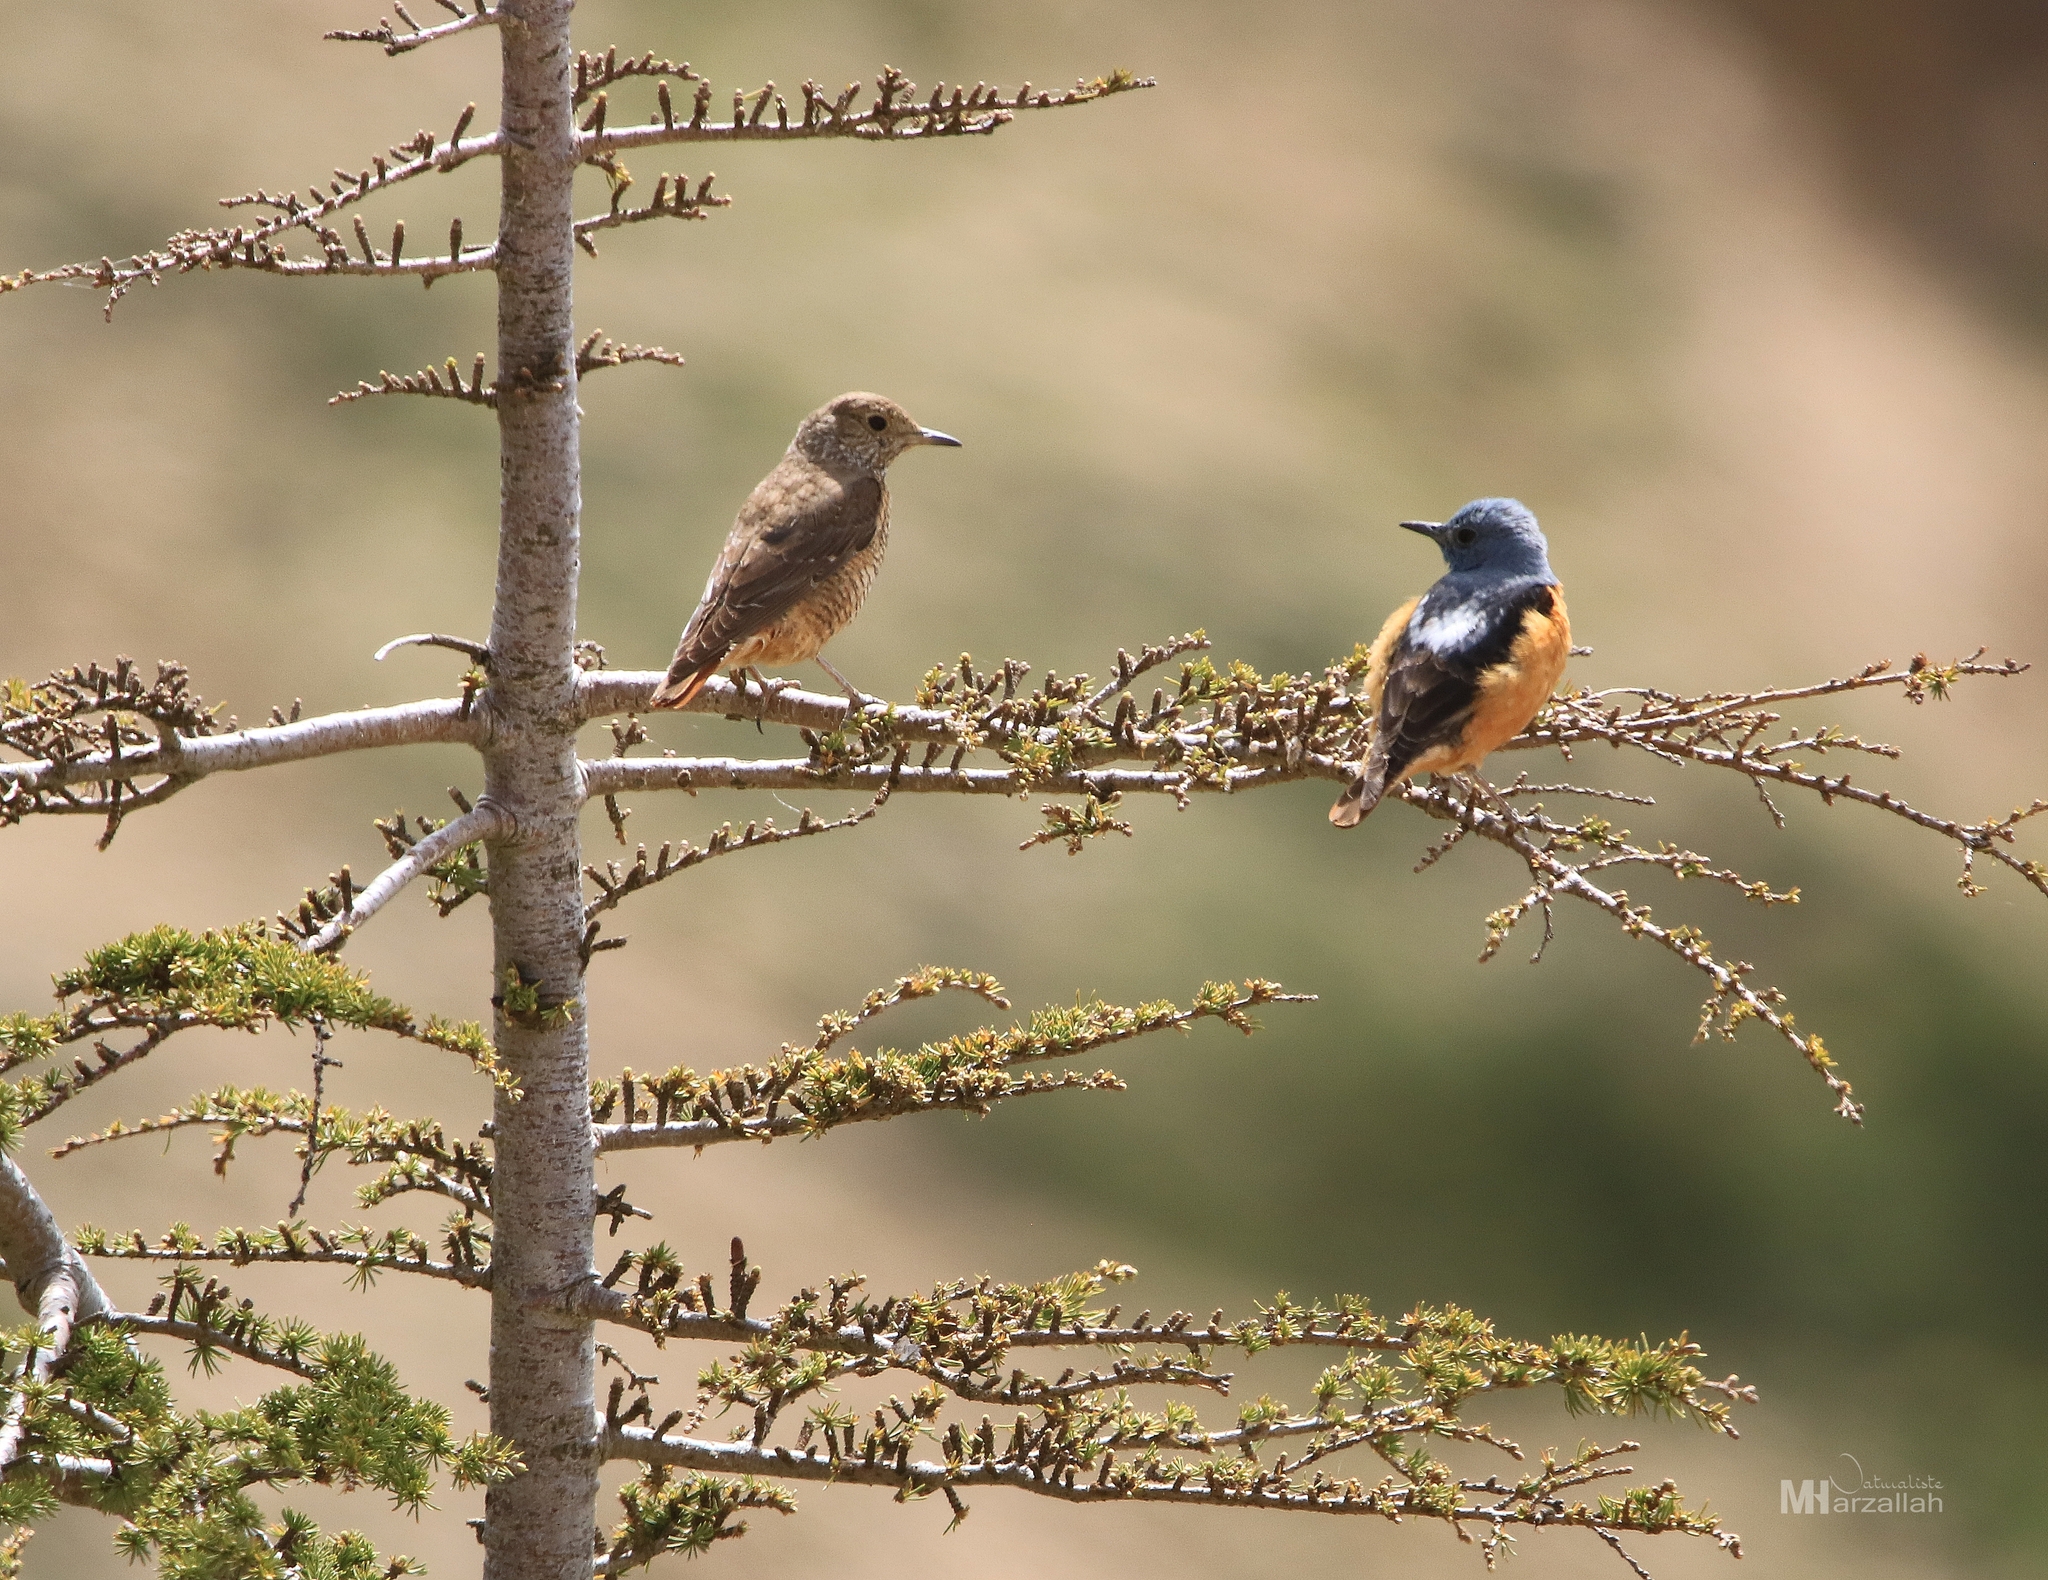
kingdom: Animalia
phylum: Chordata
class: Aves
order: Passeriformes
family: Muscicapidae
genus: Monticola
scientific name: Monticola saxatilis
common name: Rufous-tailed rock thrush
